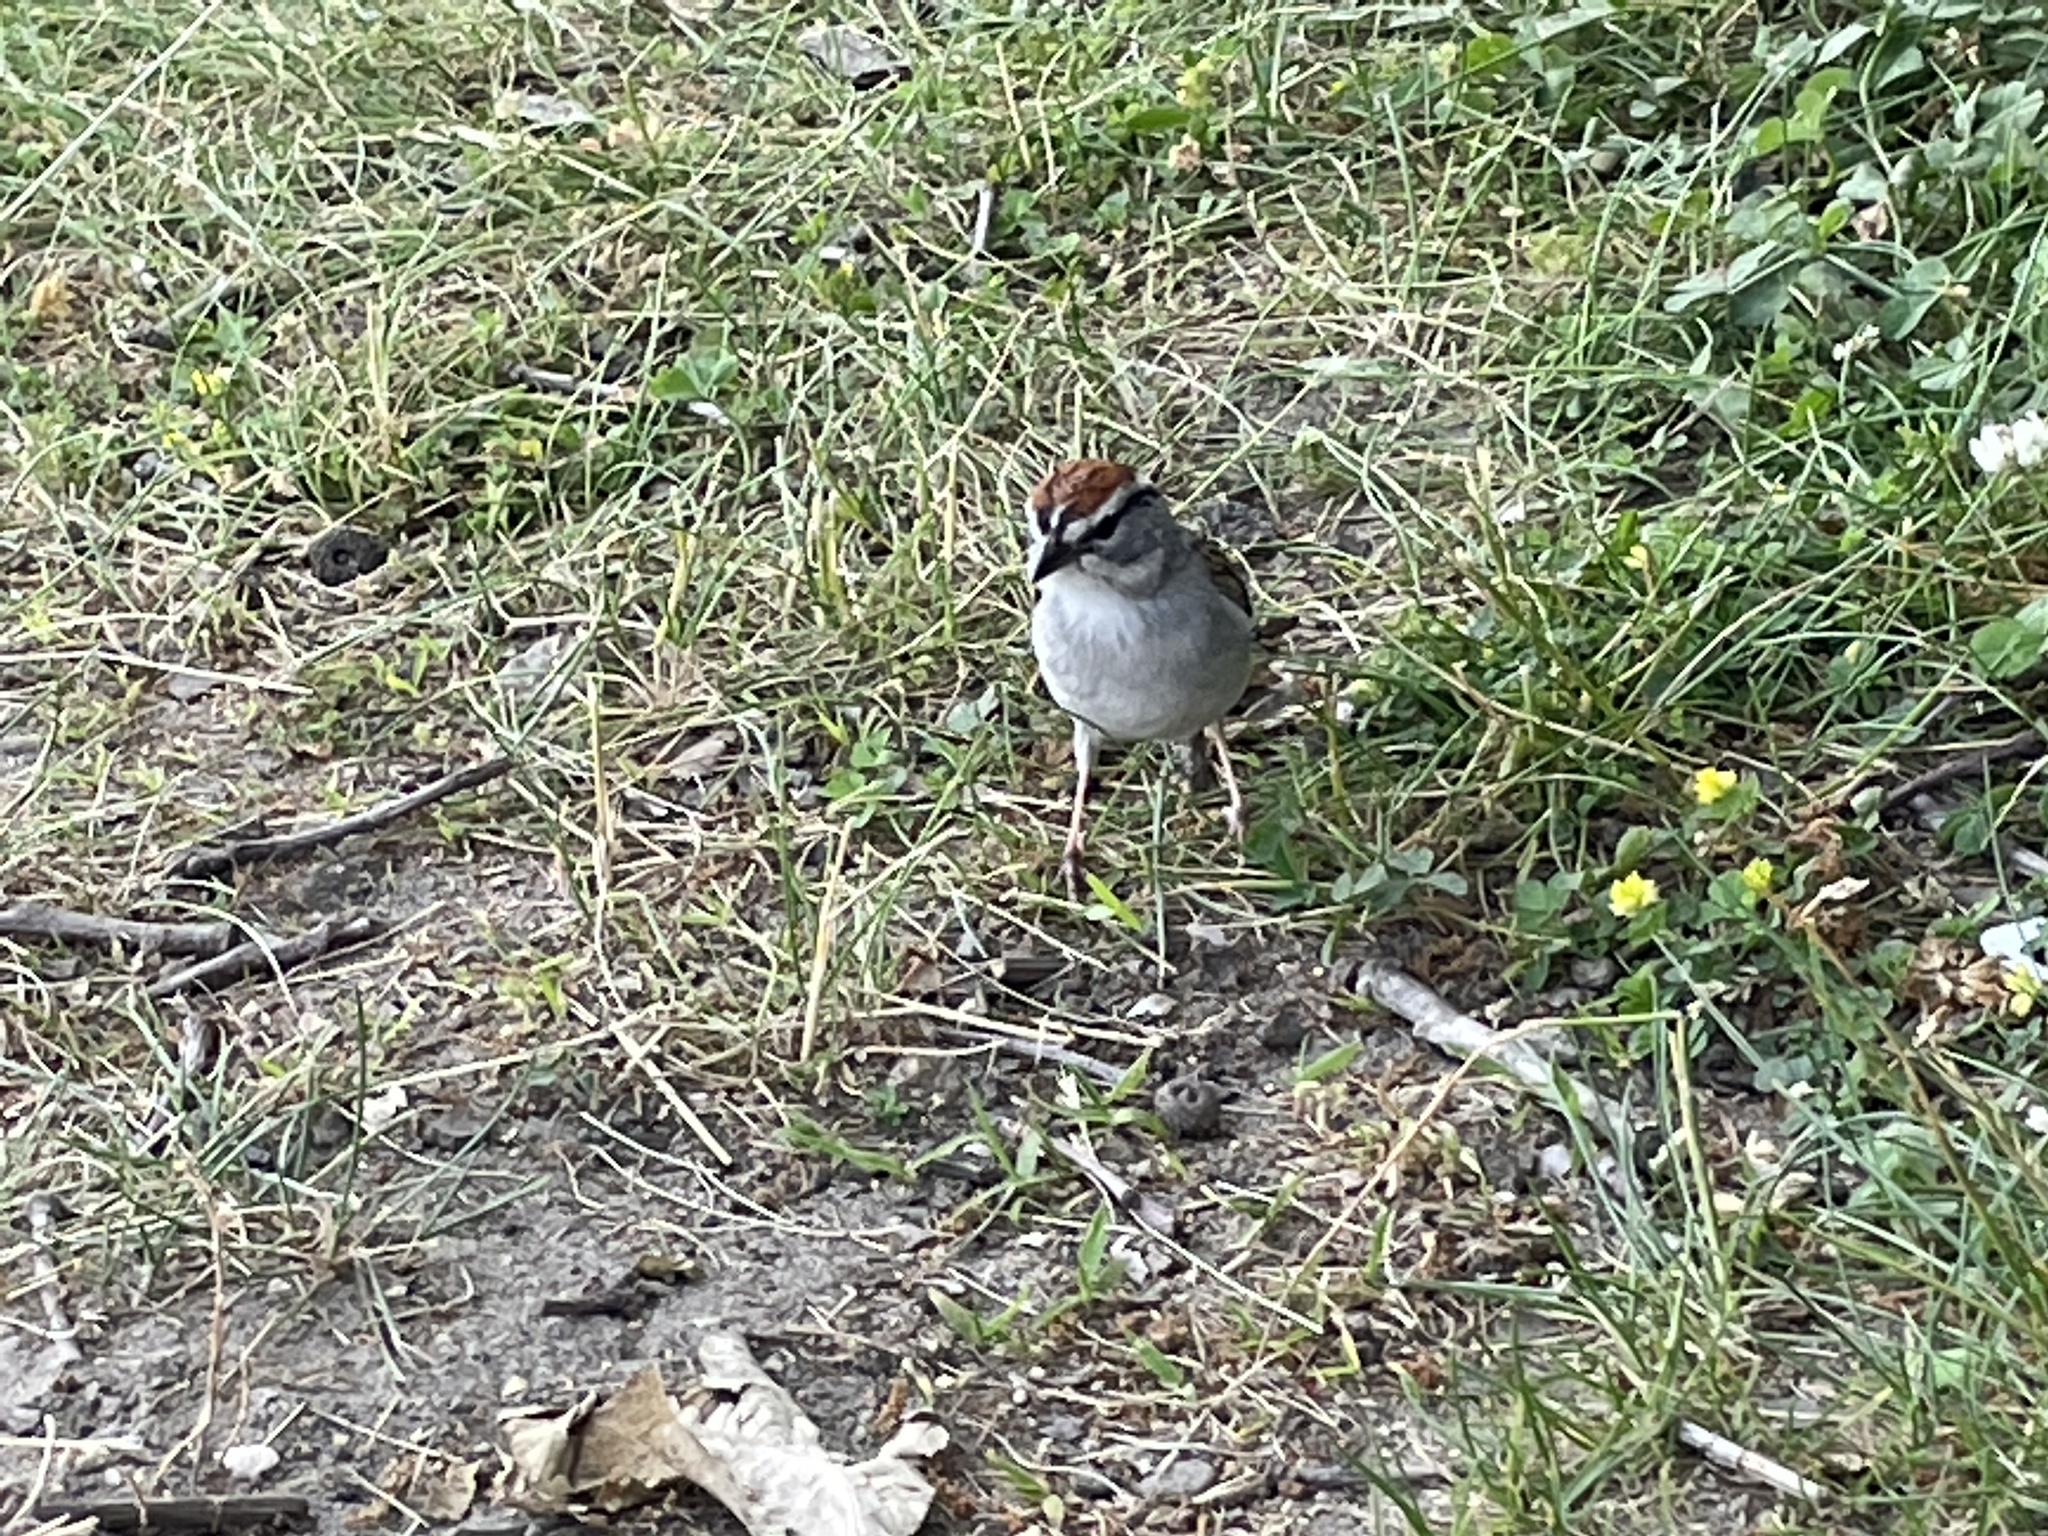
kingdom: Animalia
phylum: Chordata
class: Aves
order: Passeriformes
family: Passerellidae
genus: Spizella
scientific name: Spizella passerina
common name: Chipping sparrow
